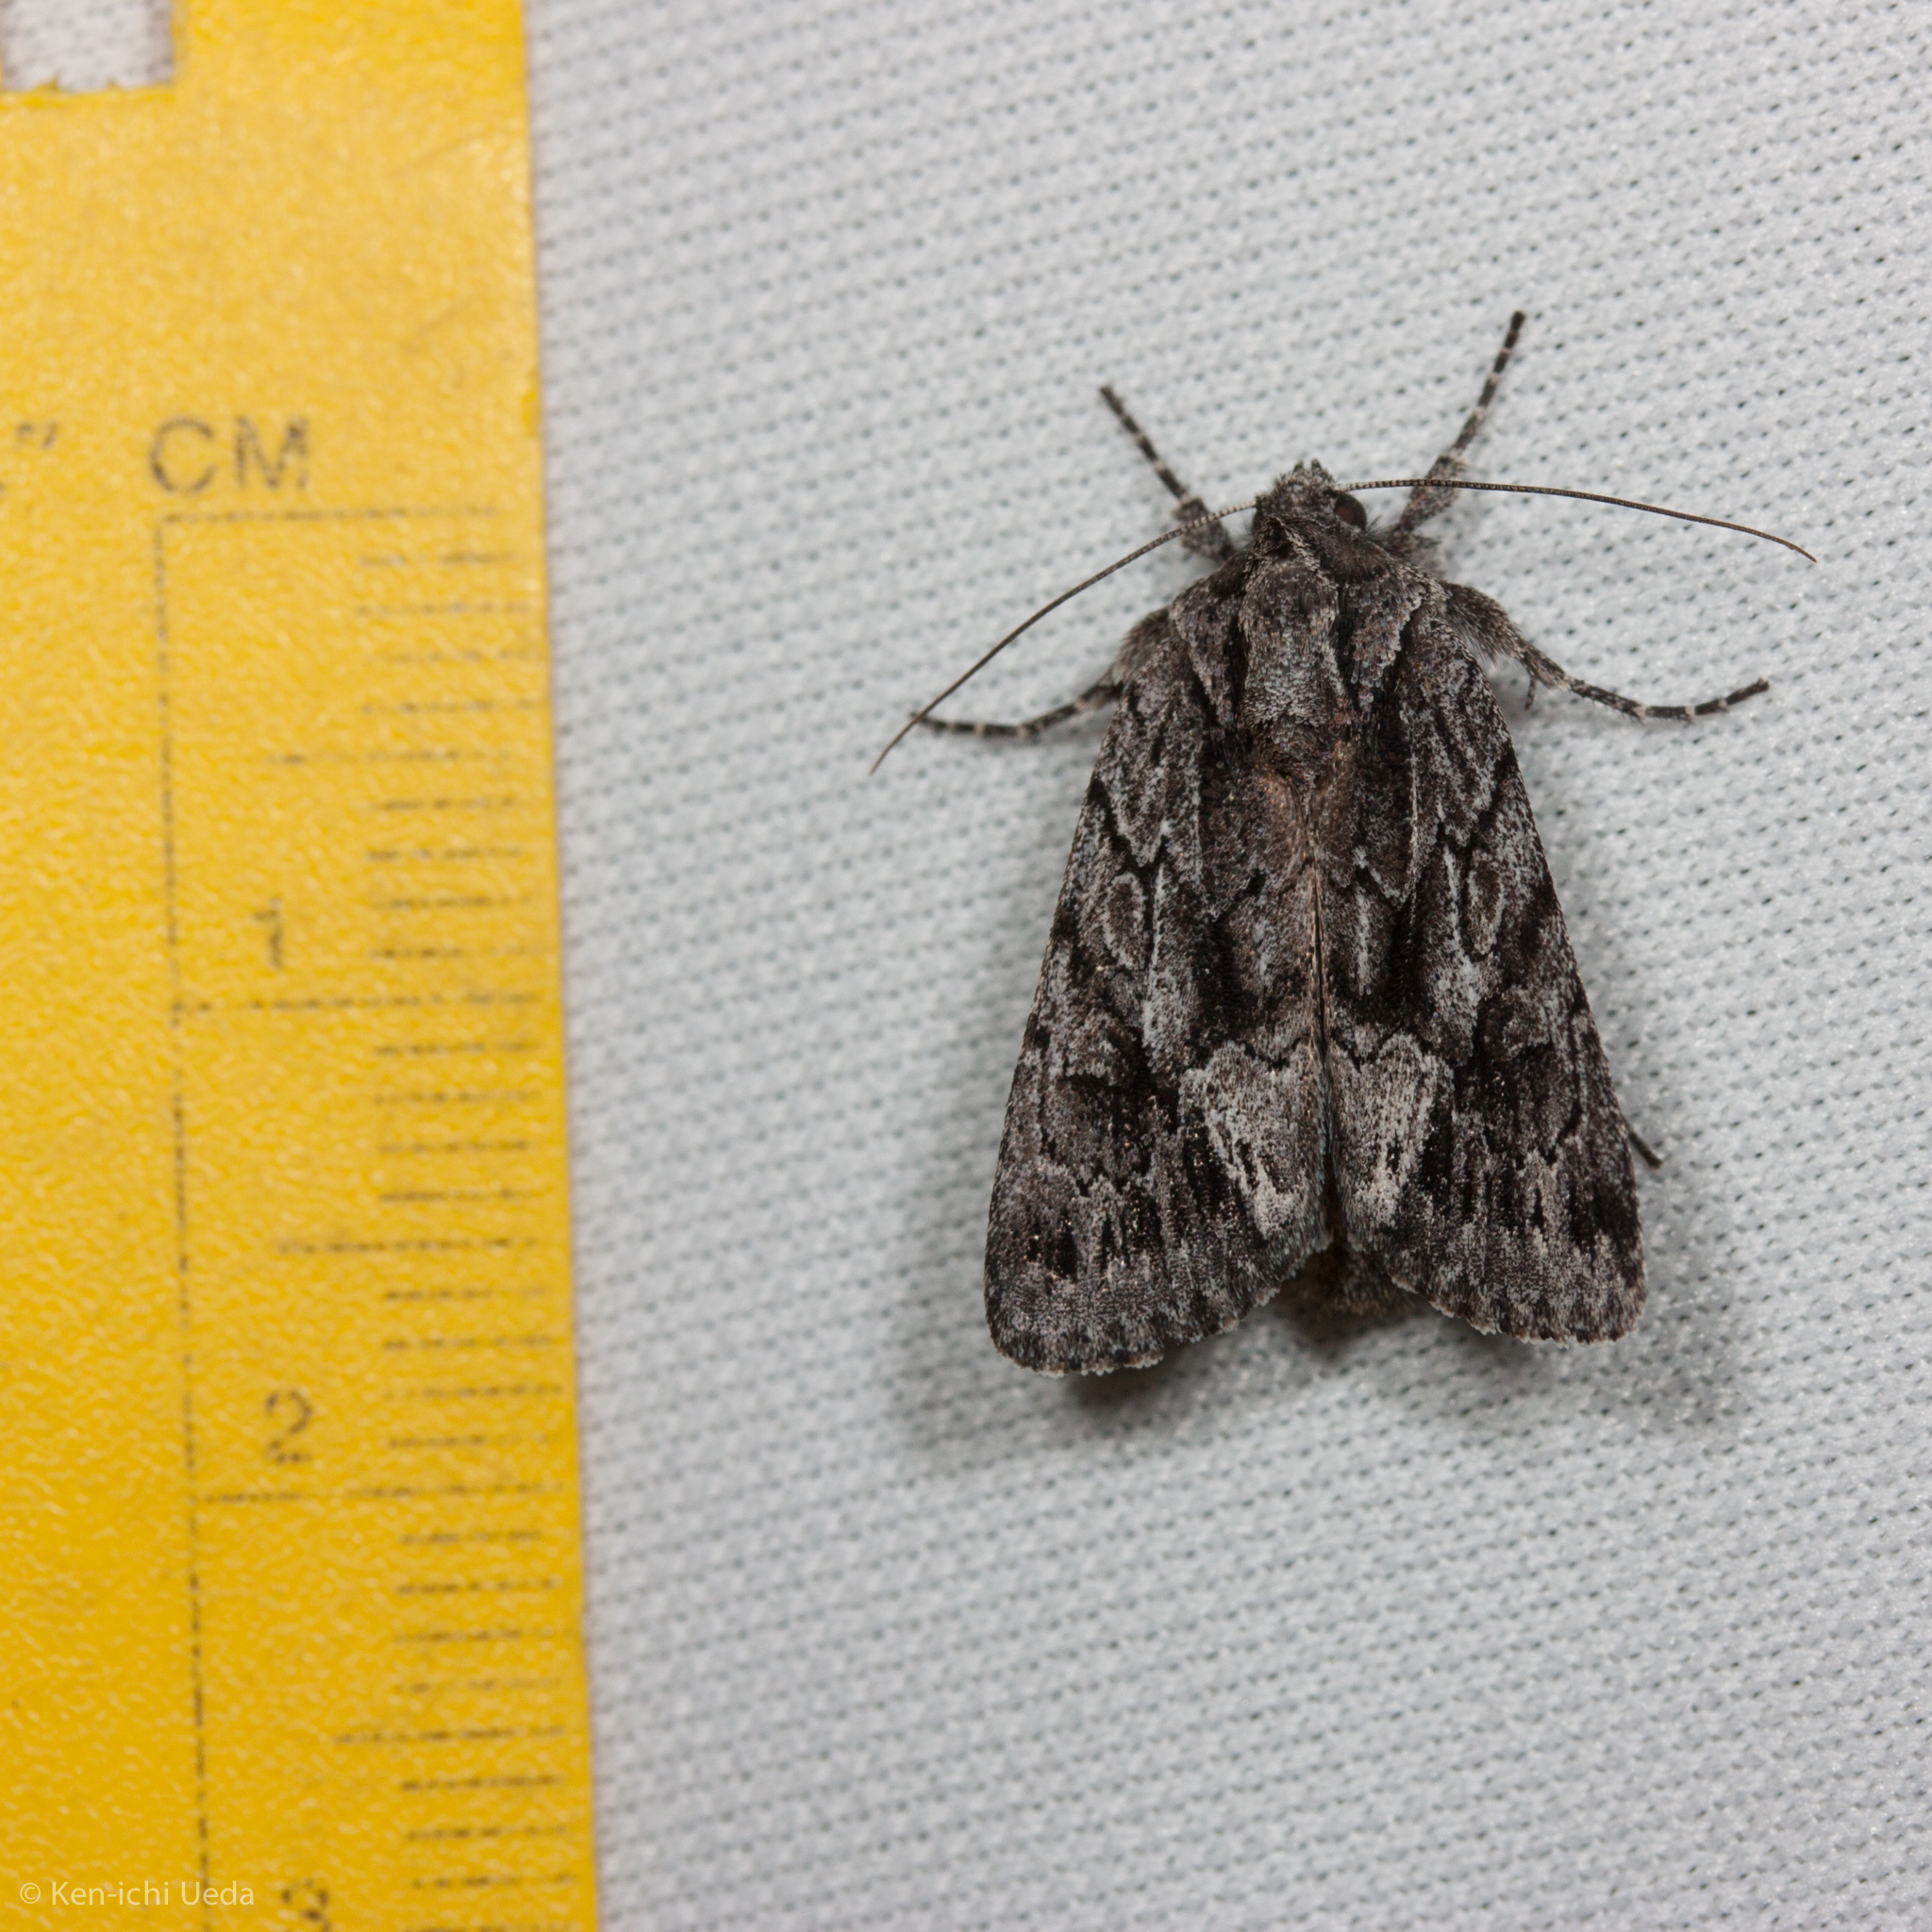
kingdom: Animalia
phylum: Arthropoda
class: Insecta
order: Lepidoptera
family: Noctuidae
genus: Sympistis
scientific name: Sympistis californiae
